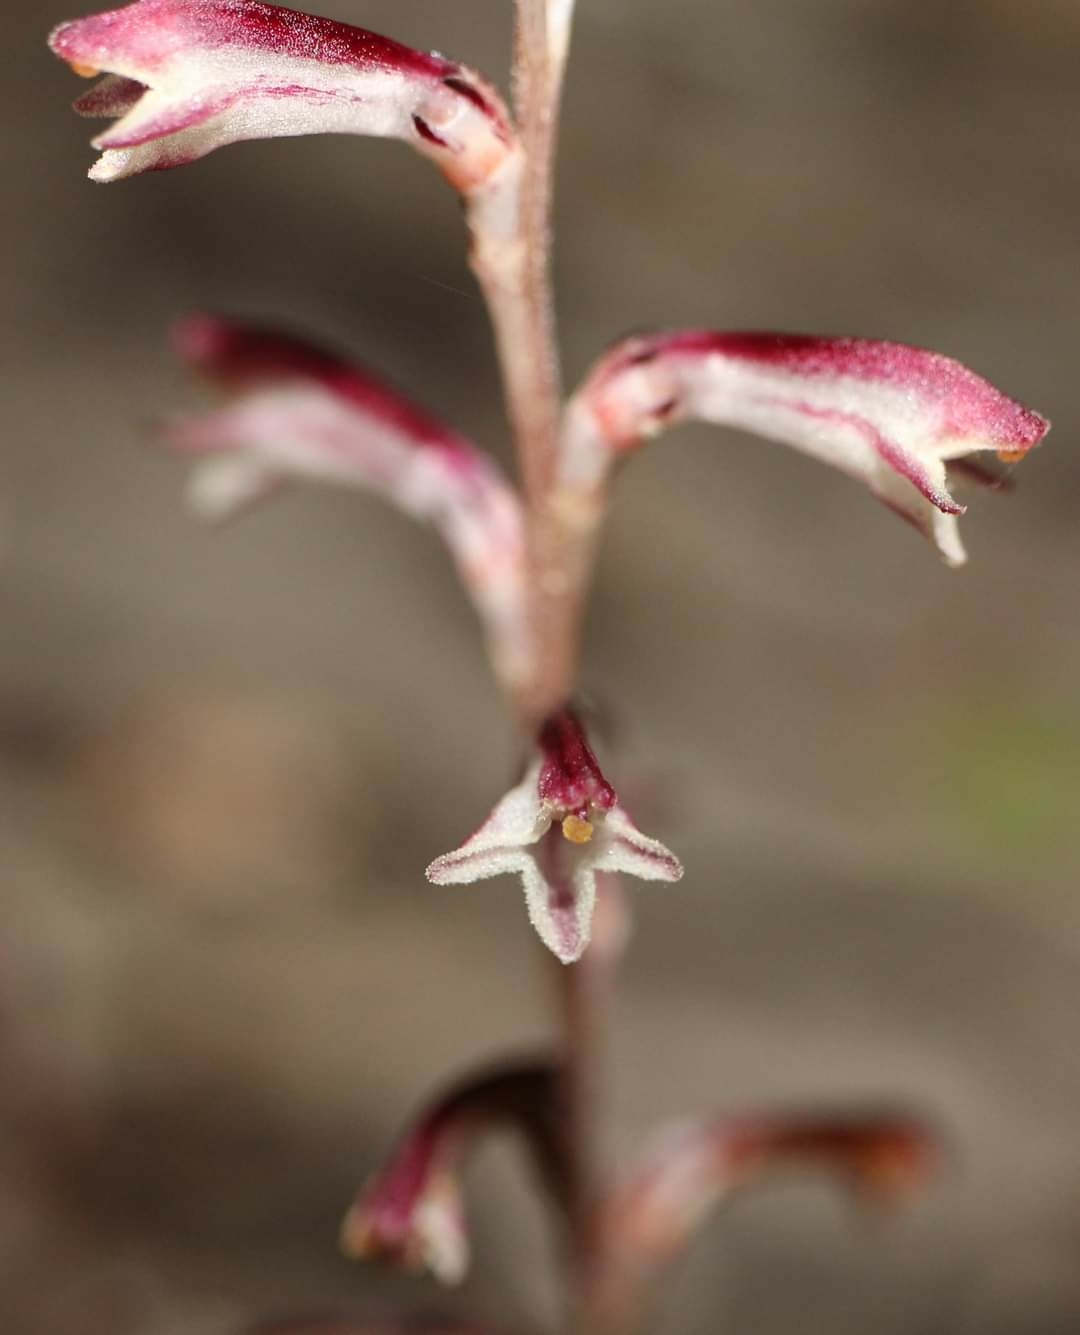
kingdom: Plantae
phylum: Tracheophyta
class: Magnoliopsida
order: Lamiales
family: Orobanchaceae
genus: Epifagus
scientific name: Epifagus virginiana
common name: Beechdrops
